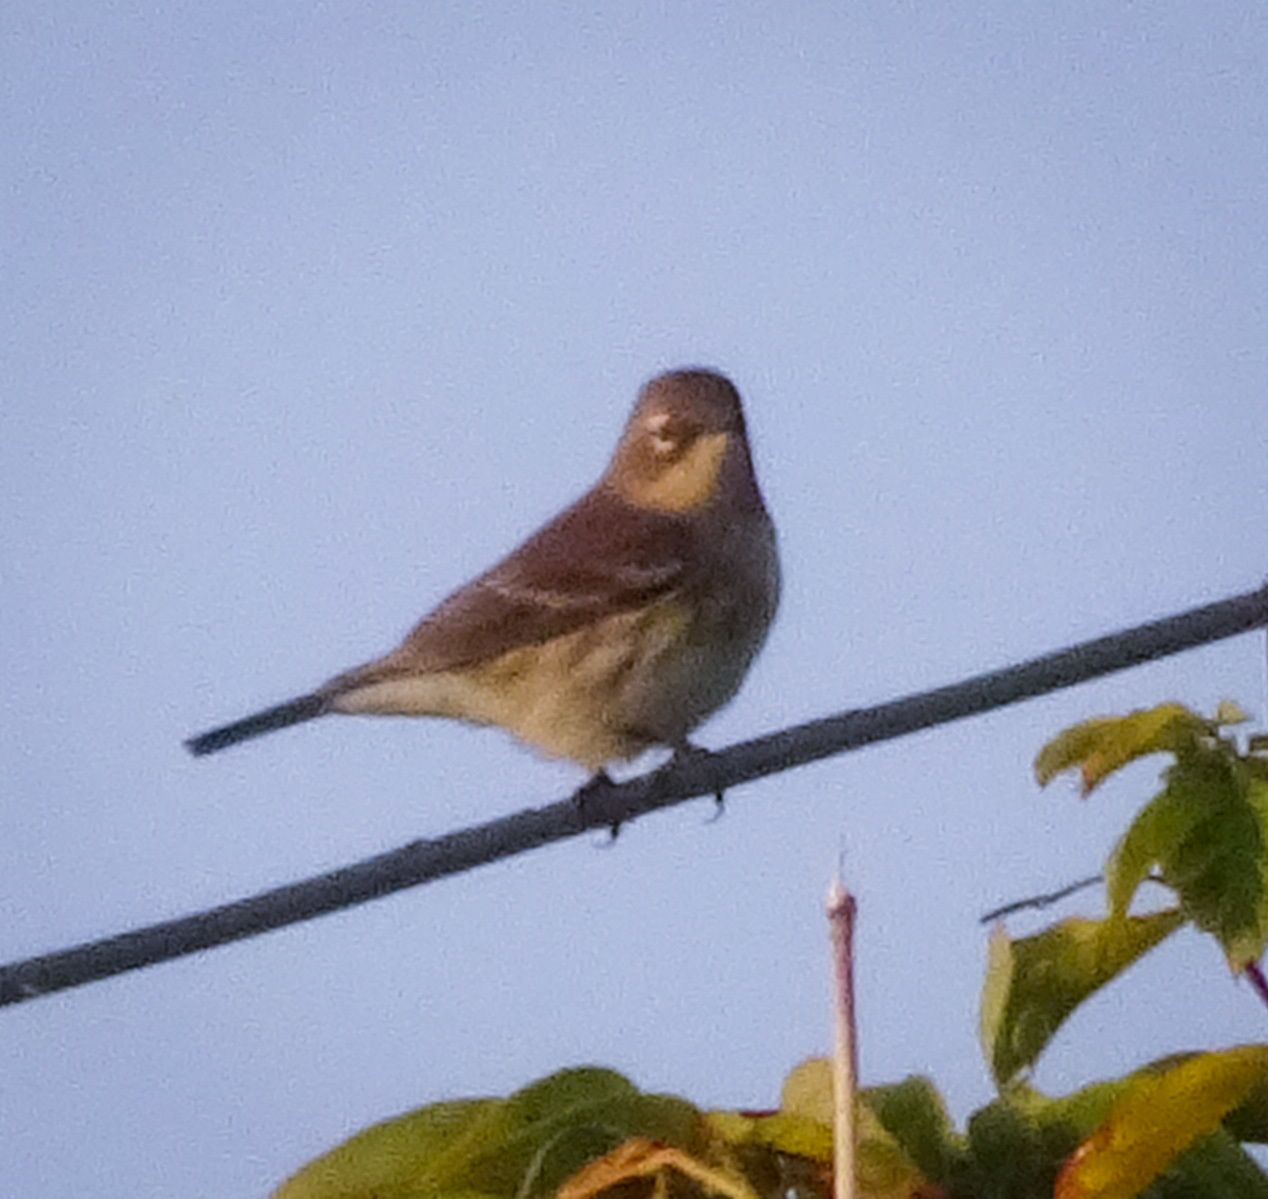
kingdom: Animalia
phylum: Chordata
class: Aves
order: Passeriformes
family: Parulidae
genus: Setophaga
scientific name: Setophaga coronata
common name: Myrtle warbler
